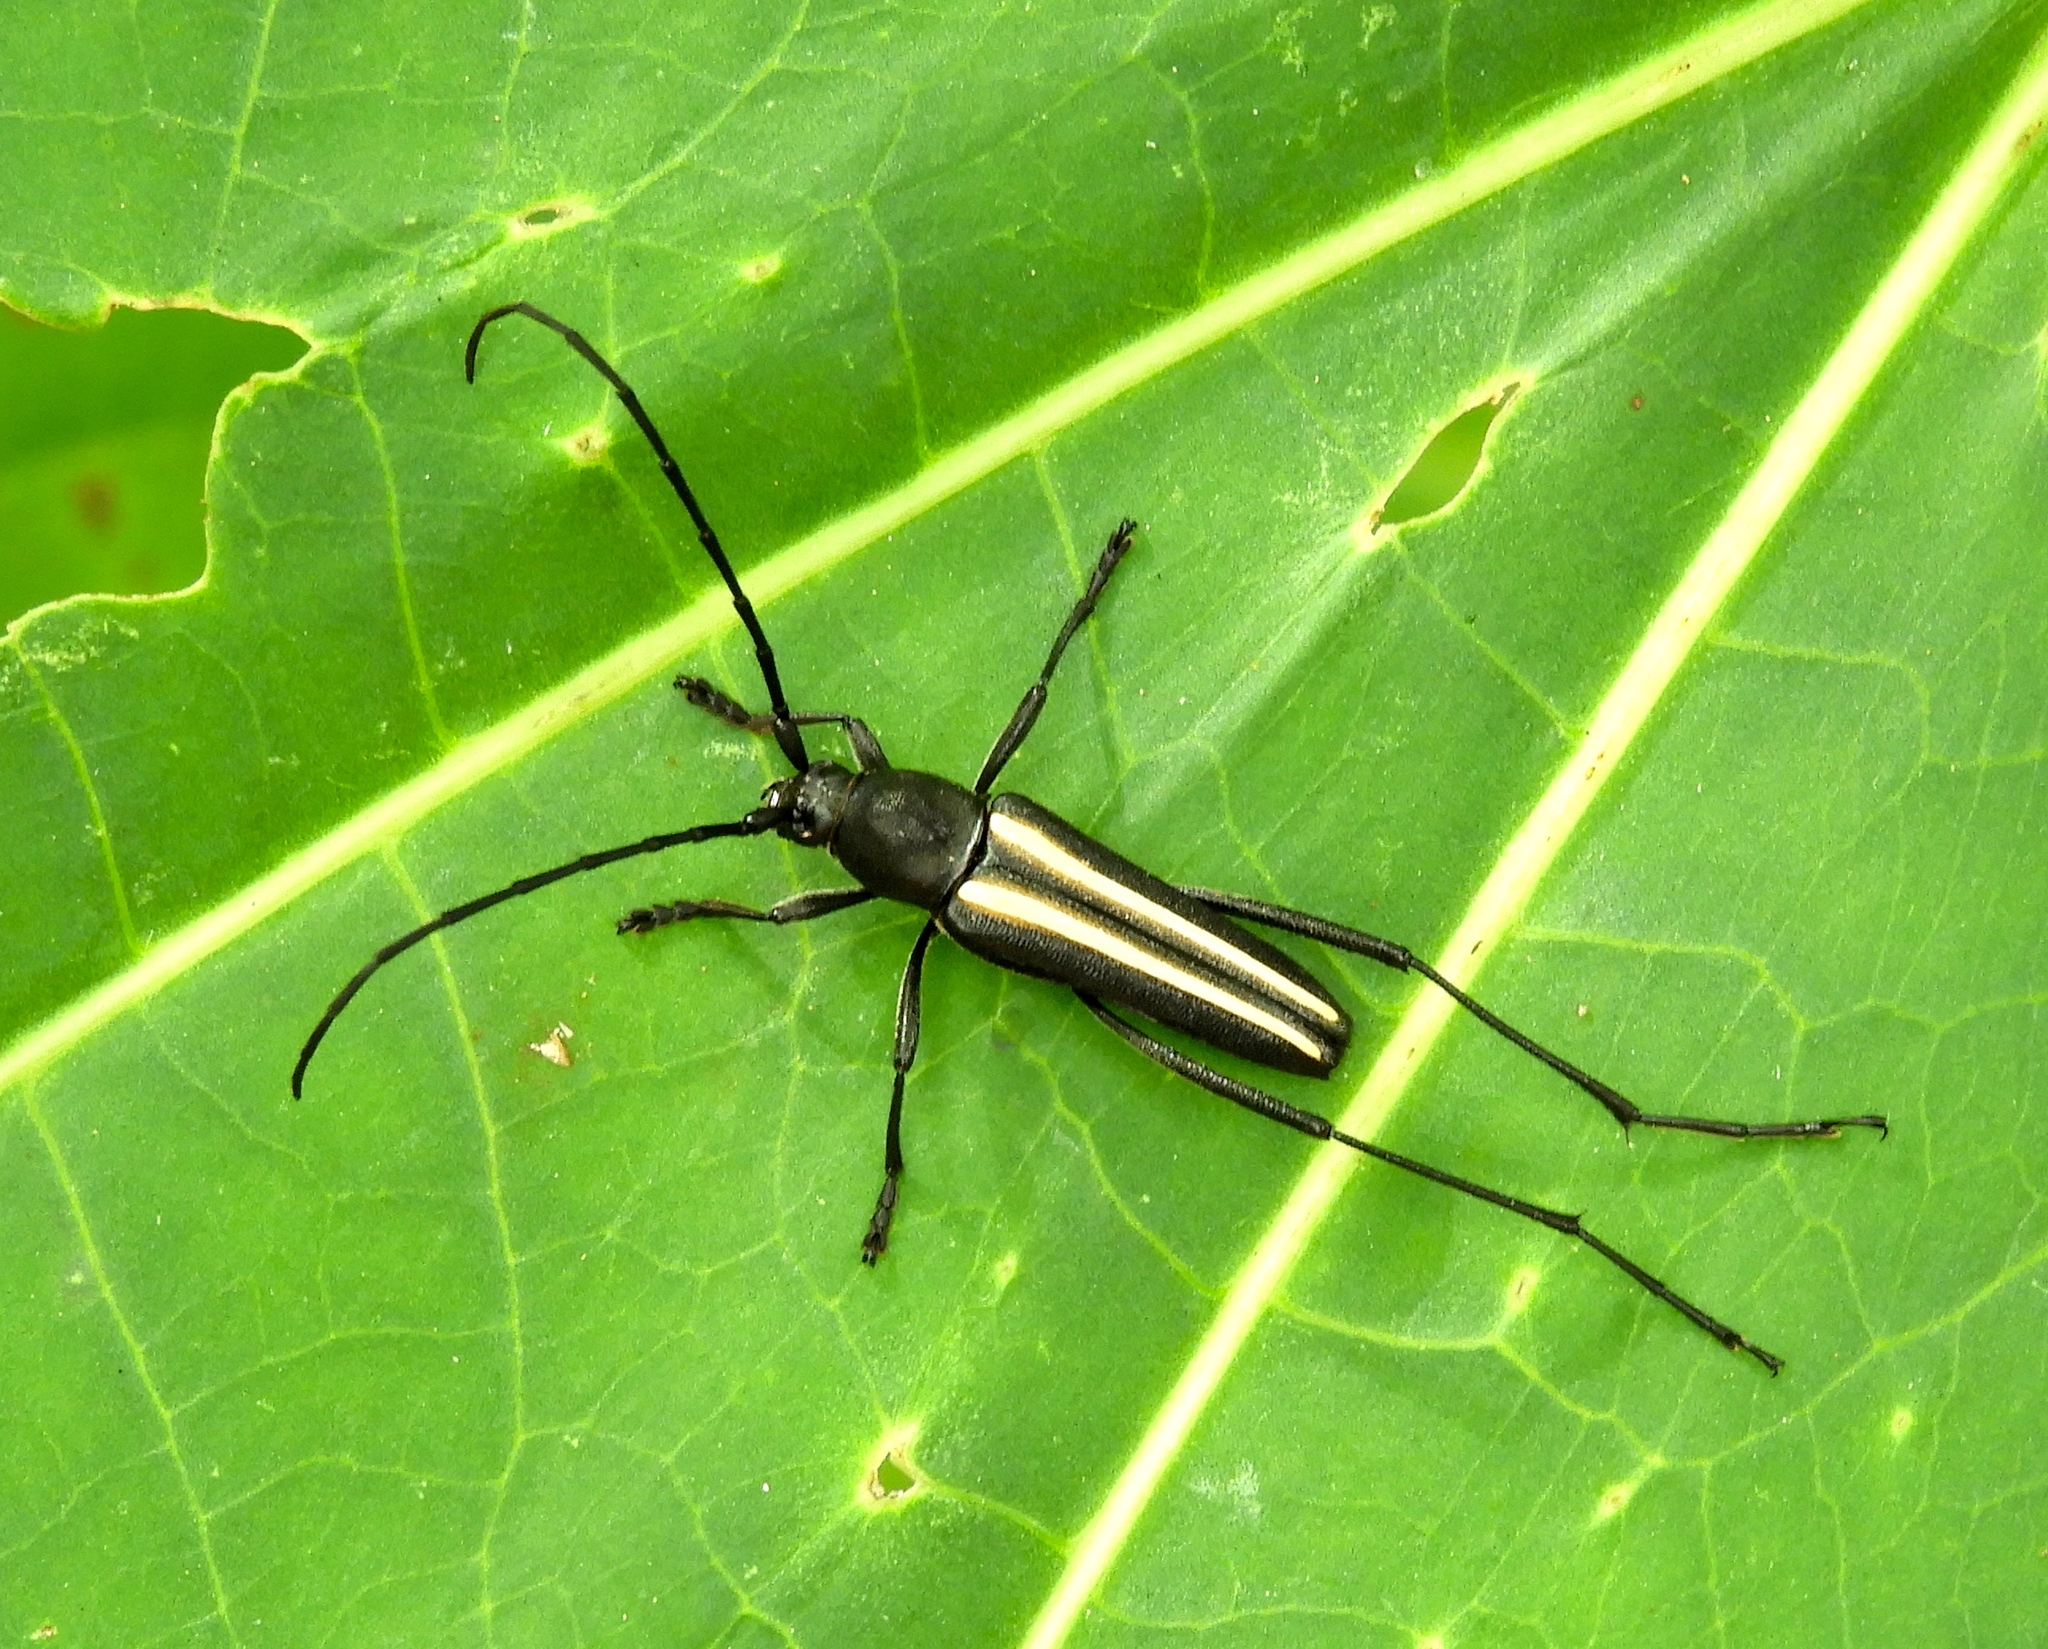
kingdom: Animalia
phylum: Arthropoda
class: Insecta
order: Coleoptera
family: Cerambycidae
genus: Lophalia
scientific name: Lophalia prolata
